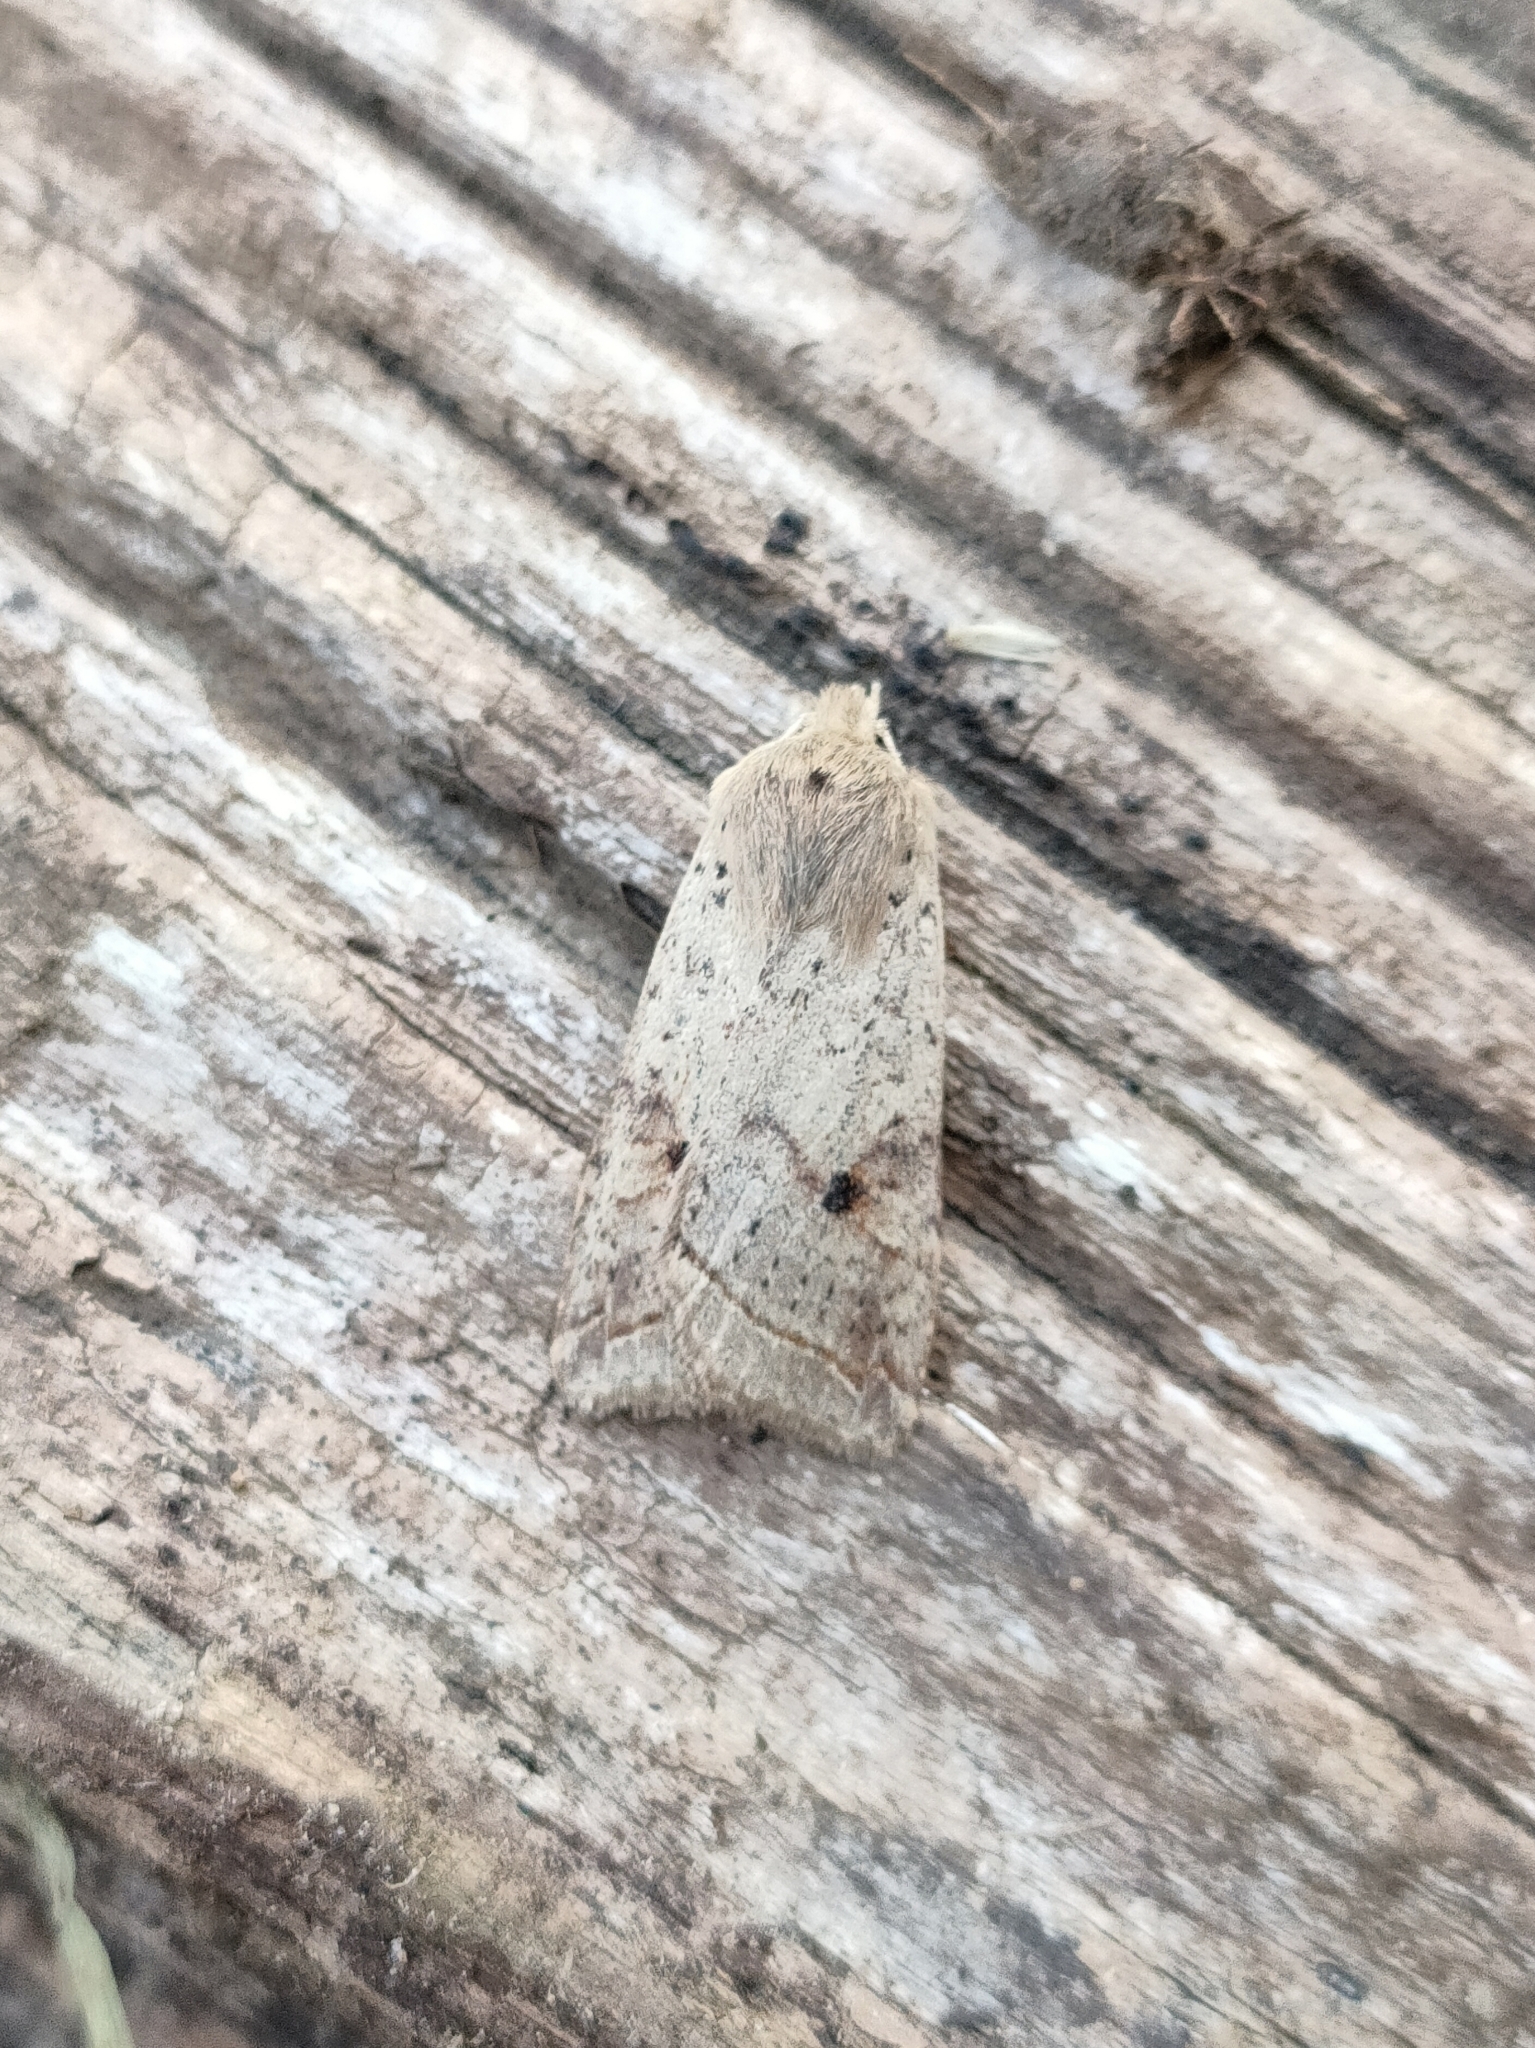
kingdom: Animalia
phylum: Arthropoda
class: Insecta
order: Lepidoptera
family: Noctuidae
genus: Agrochola
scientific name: Agrochola blidaensis
